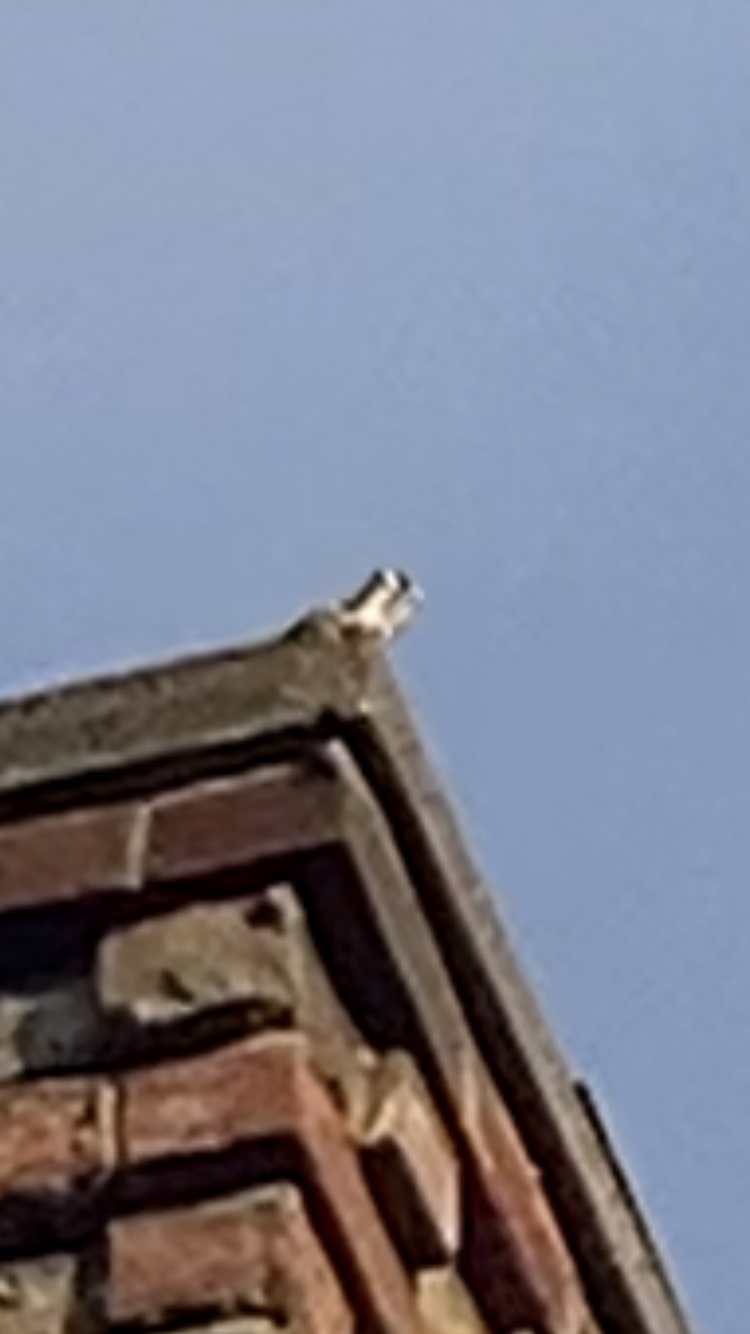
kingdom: Animalia
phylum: Chordata
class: Aves
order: Passeriformes
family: Fringillidae
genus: Carduelis
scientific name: Carduelis carduelis
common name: European goldfinch
